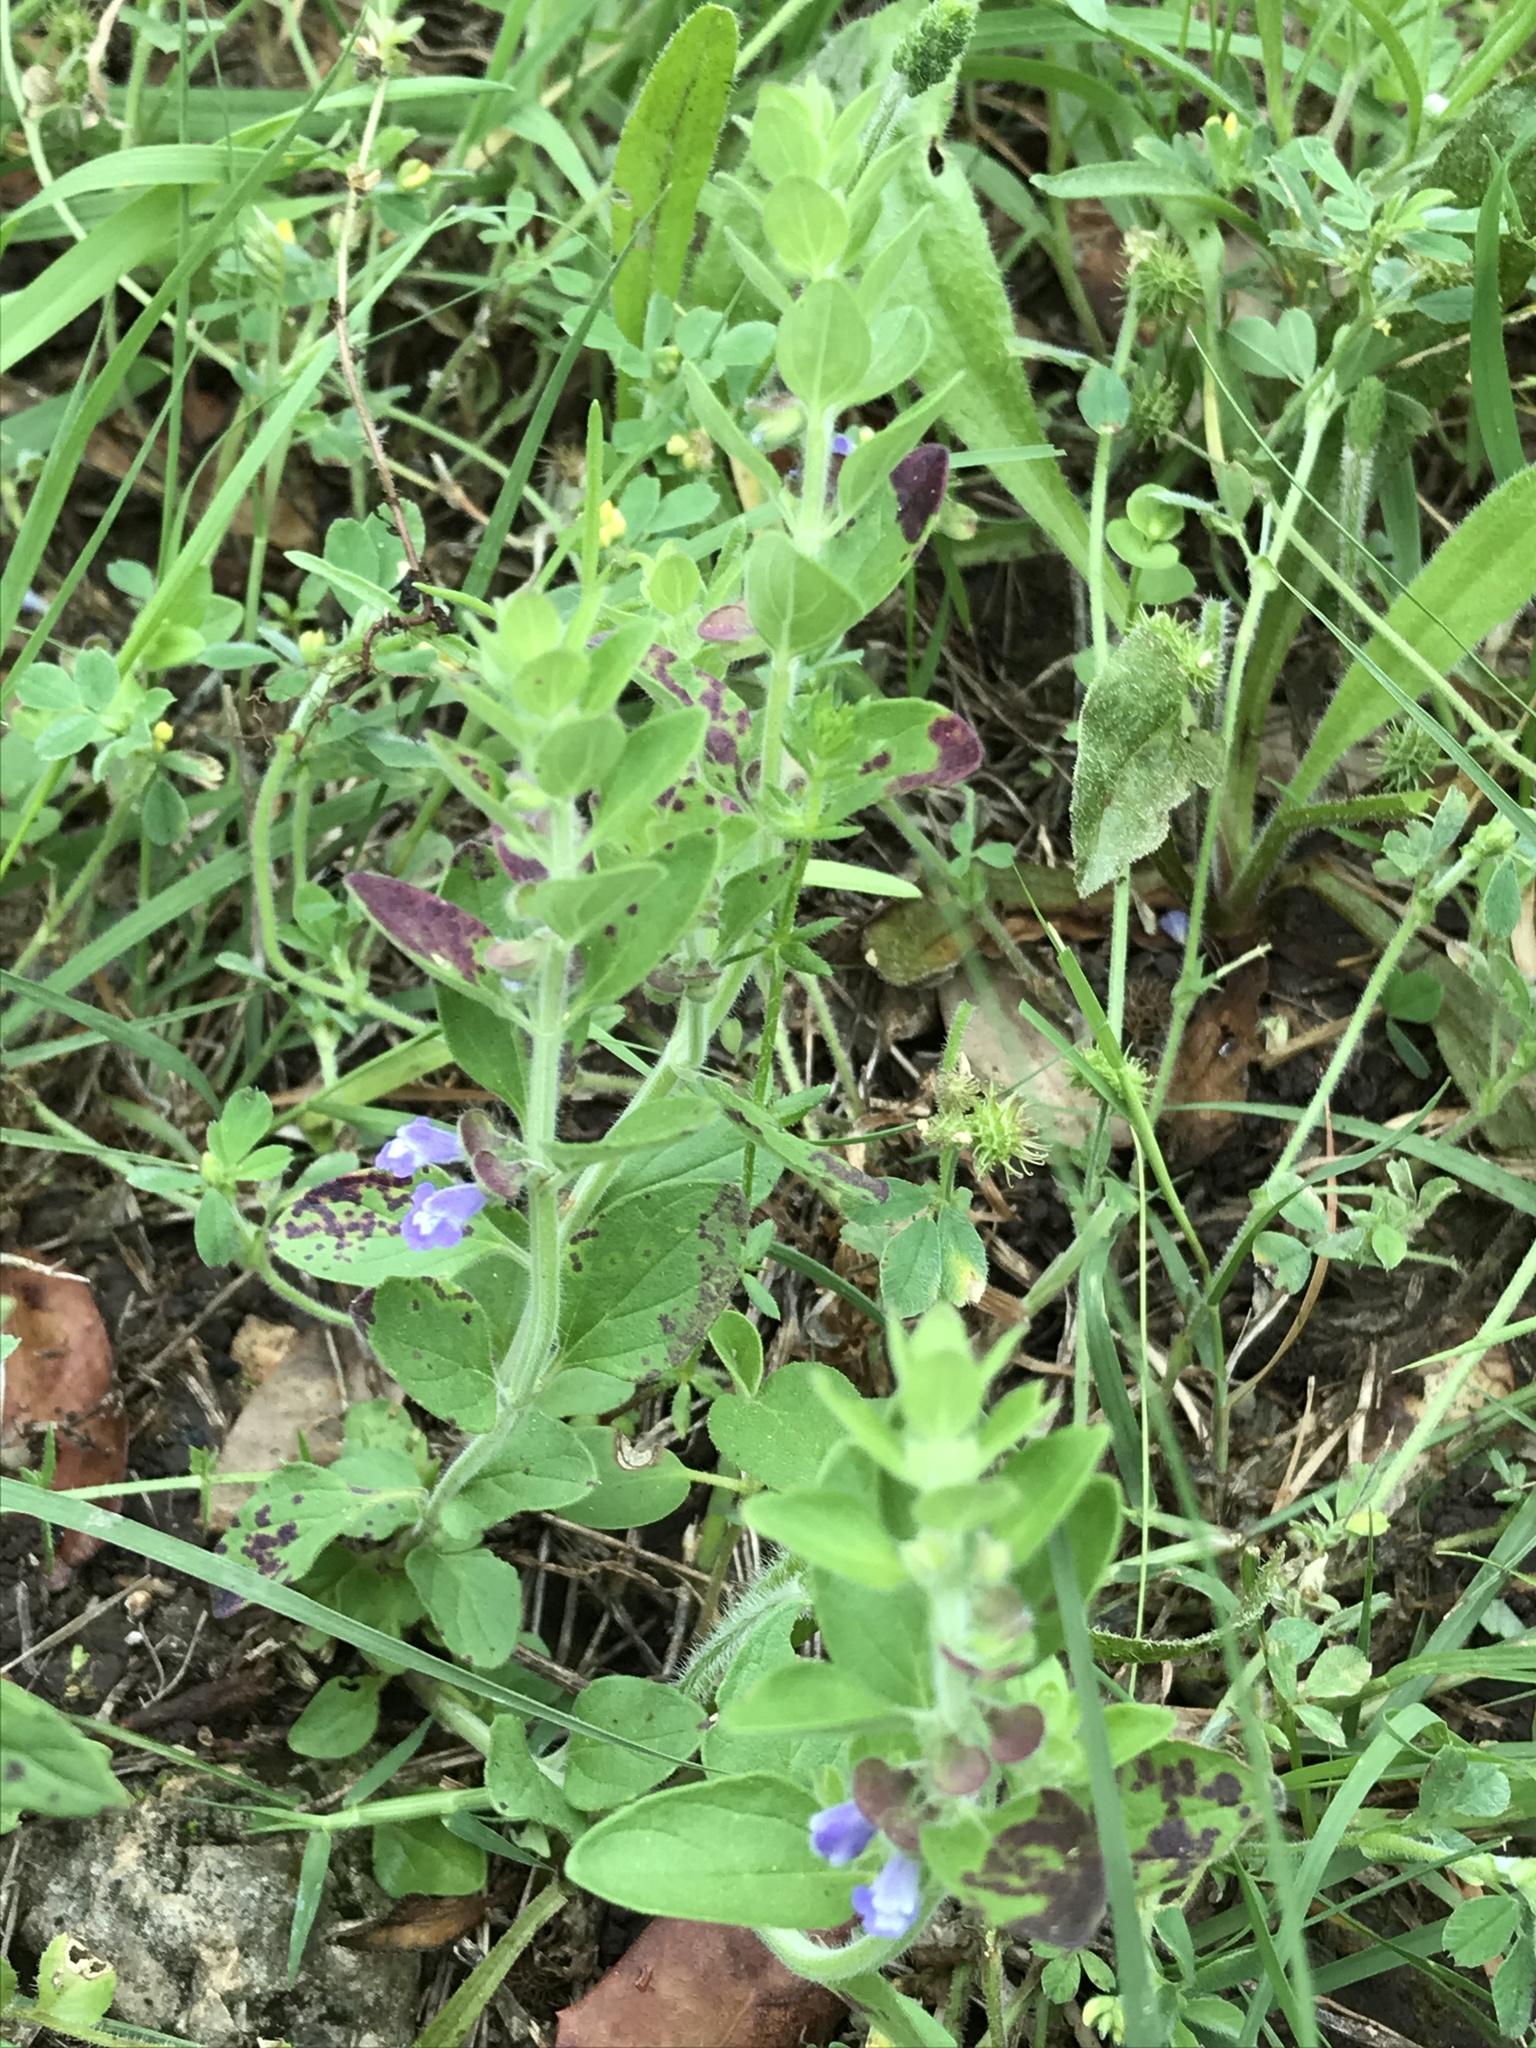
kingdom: Plantae
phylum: Tracheophyta
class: Magnoliopsida
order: Lamiales
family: Lamiaceae
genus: Scutellaria
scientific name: Scutellaria drummondii
